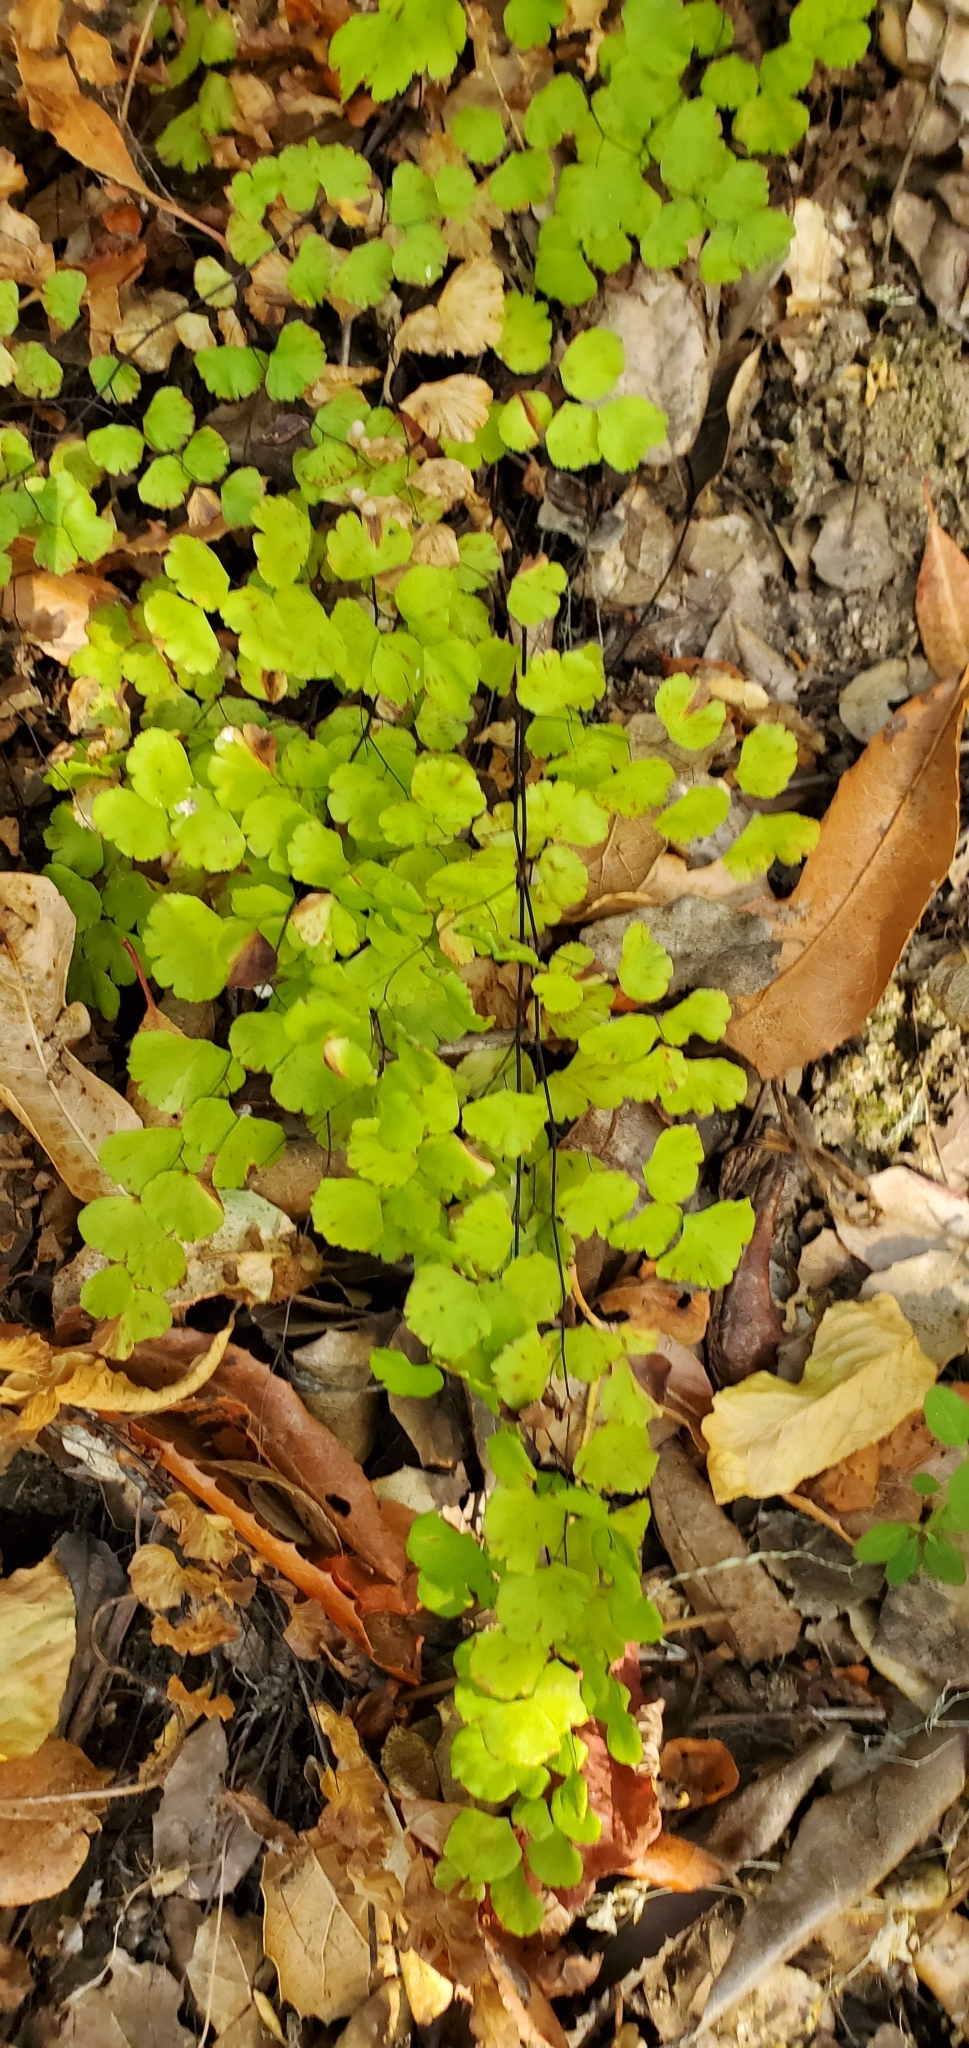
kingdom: Plantae
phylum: Tracheophyta
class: Polypodiopsida
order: Polypodiales
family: Pteridaceae
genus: Adiantum
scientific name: Adiantum jordanii
